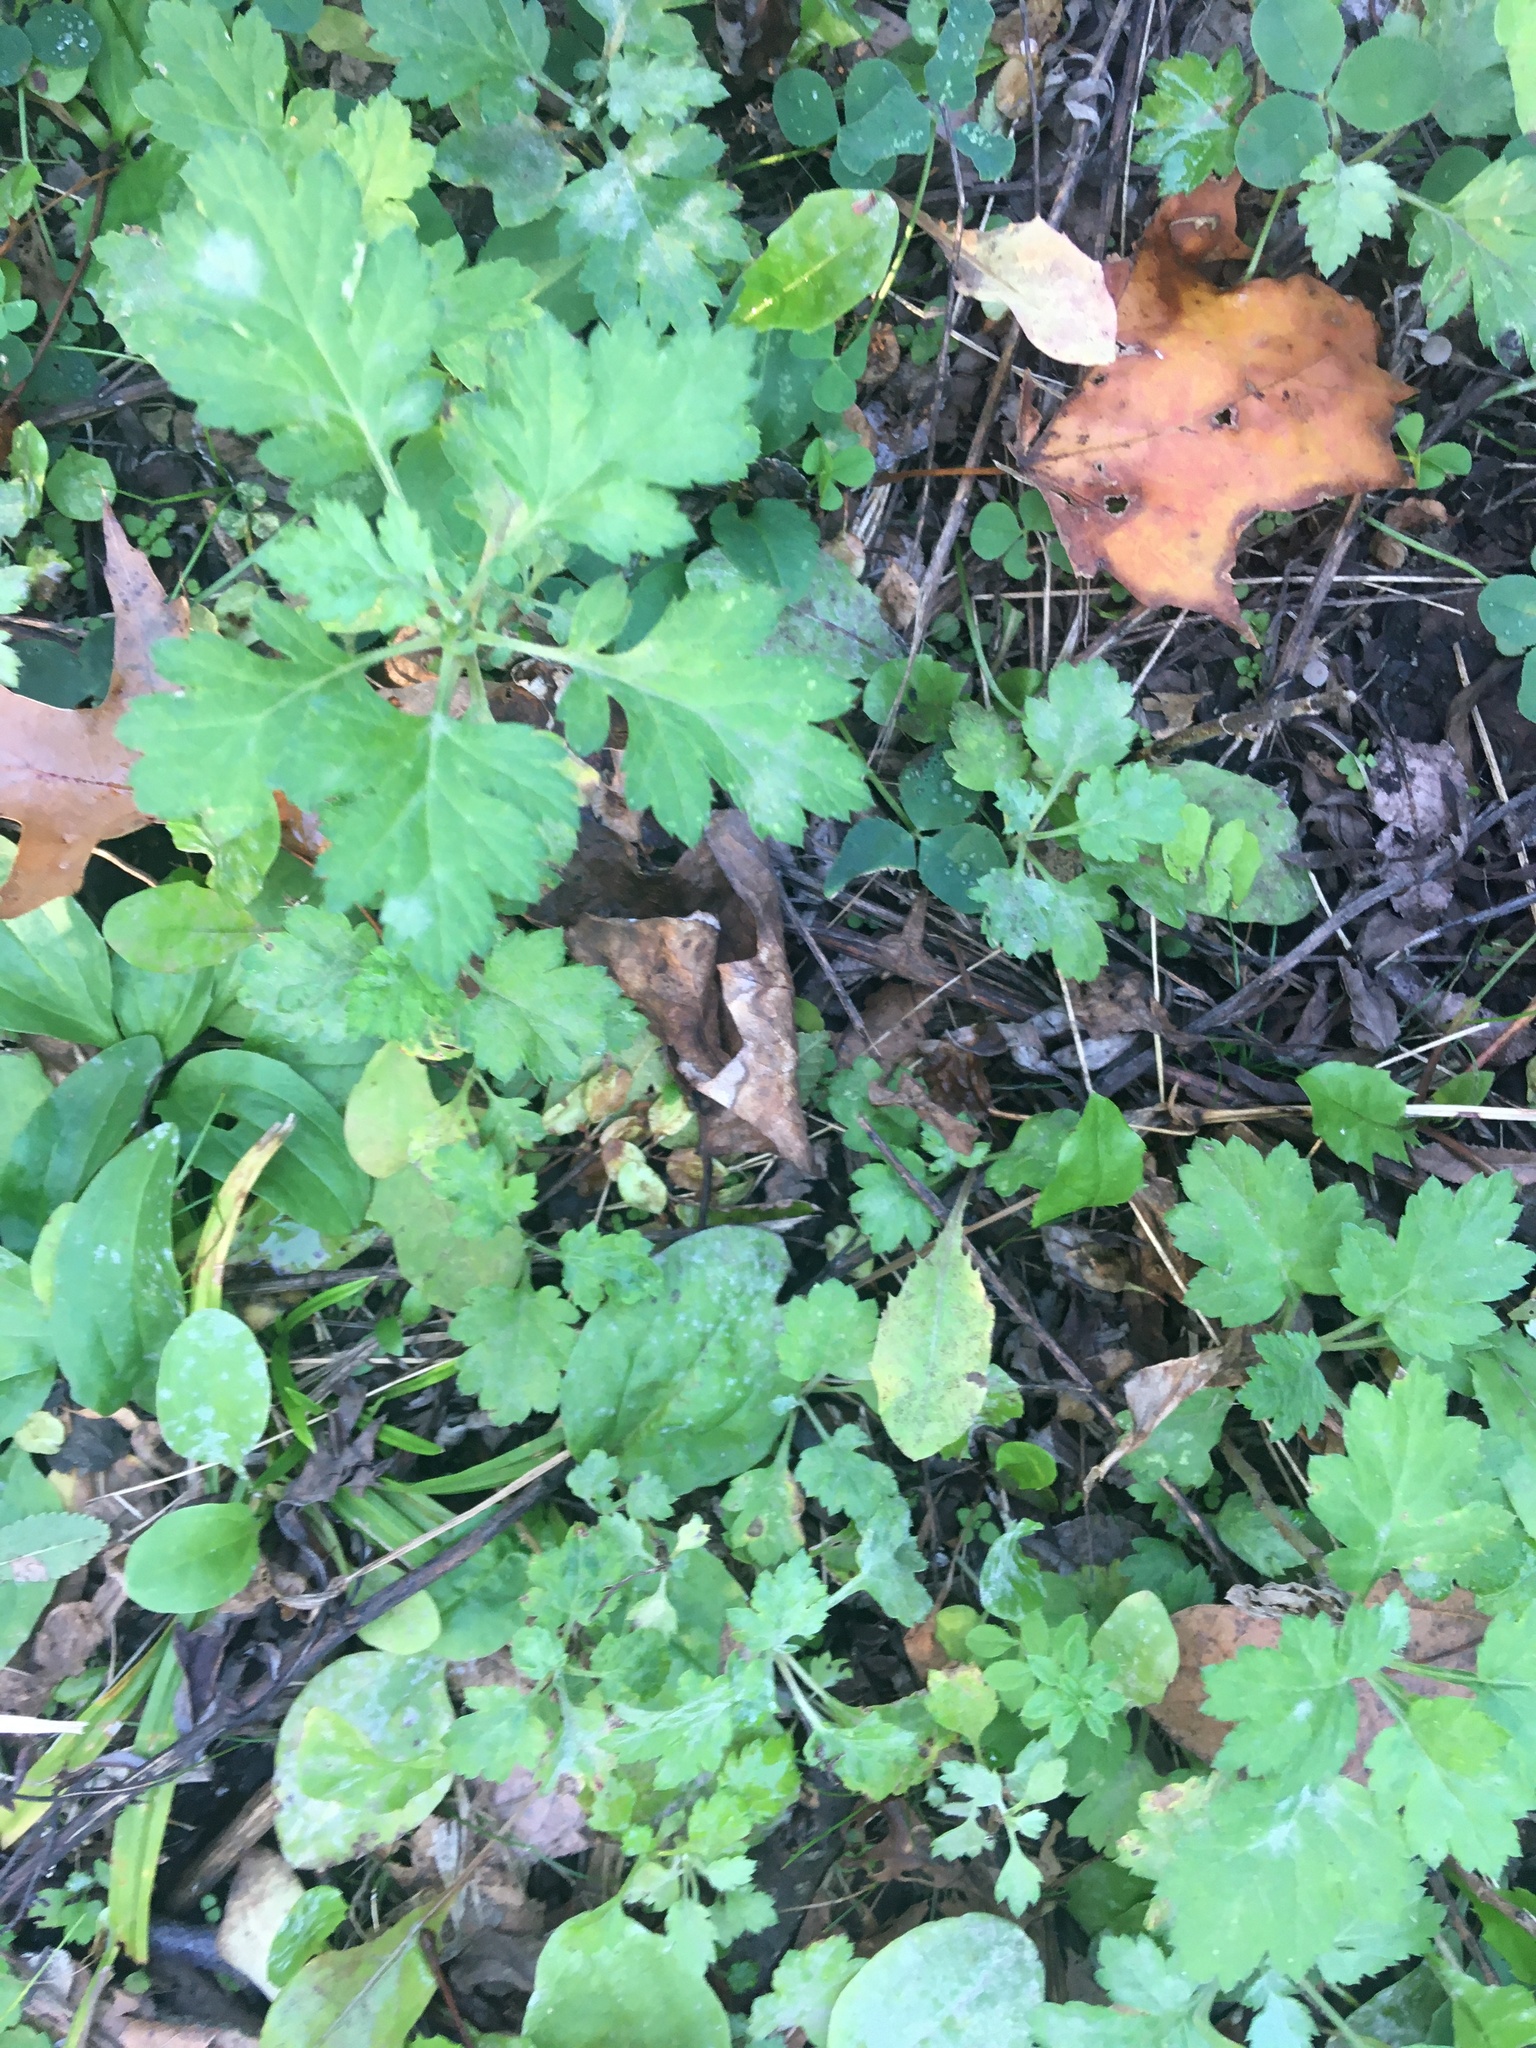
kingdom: Plantae
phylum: Tracheophyta
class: Magnoliopsida
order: Asterales
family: Asteraceae
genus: Artemisia
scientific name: Artemisia vulgaris
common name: Mugwort
